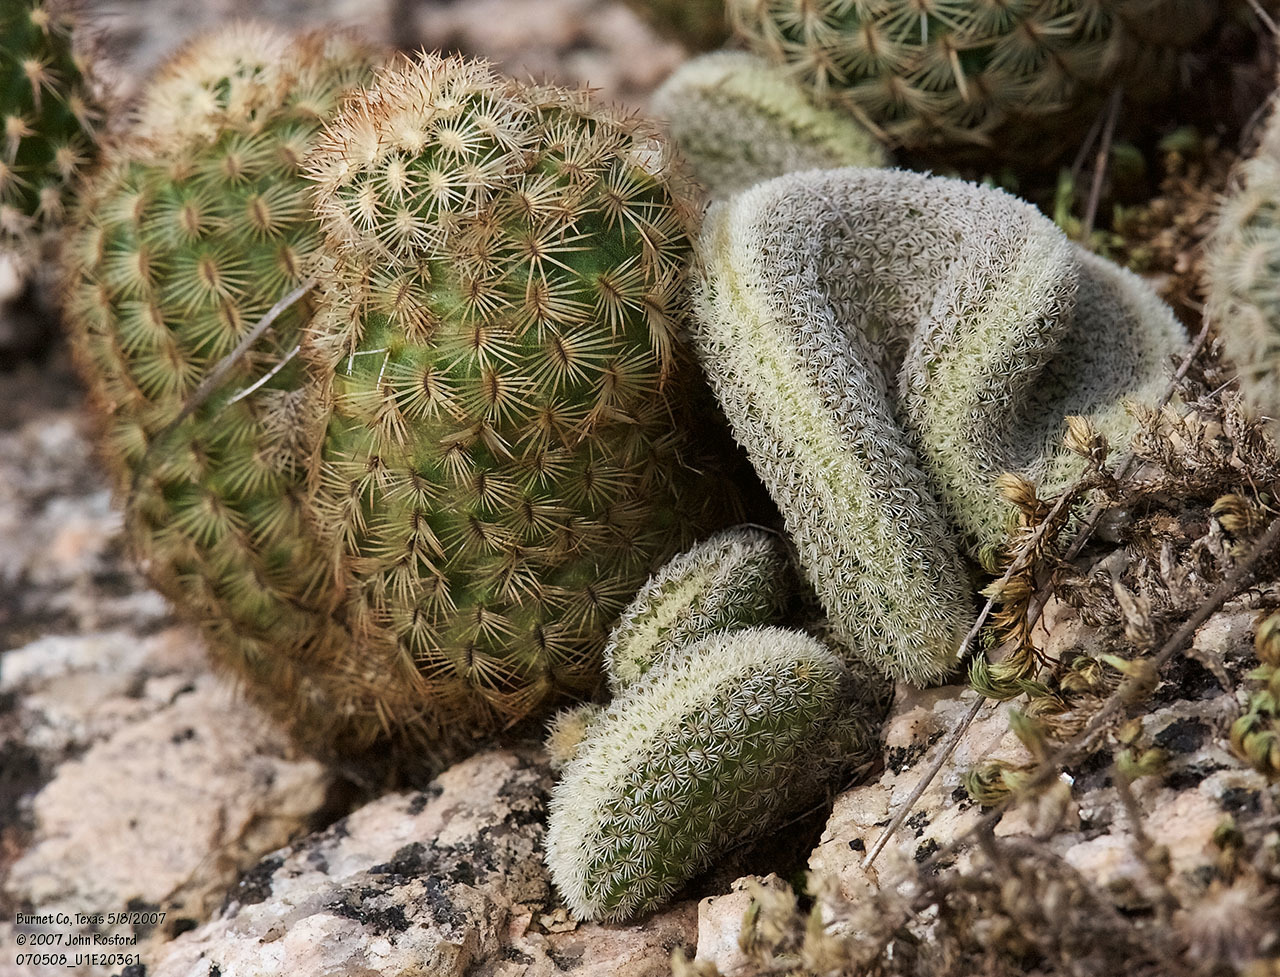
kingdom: Plantae
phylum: Tracheophyta
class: Magnoliopsida
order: Caryophyllales
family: Cactaceae
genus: Echinocereus
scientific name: Echinocereus reichenbachii
